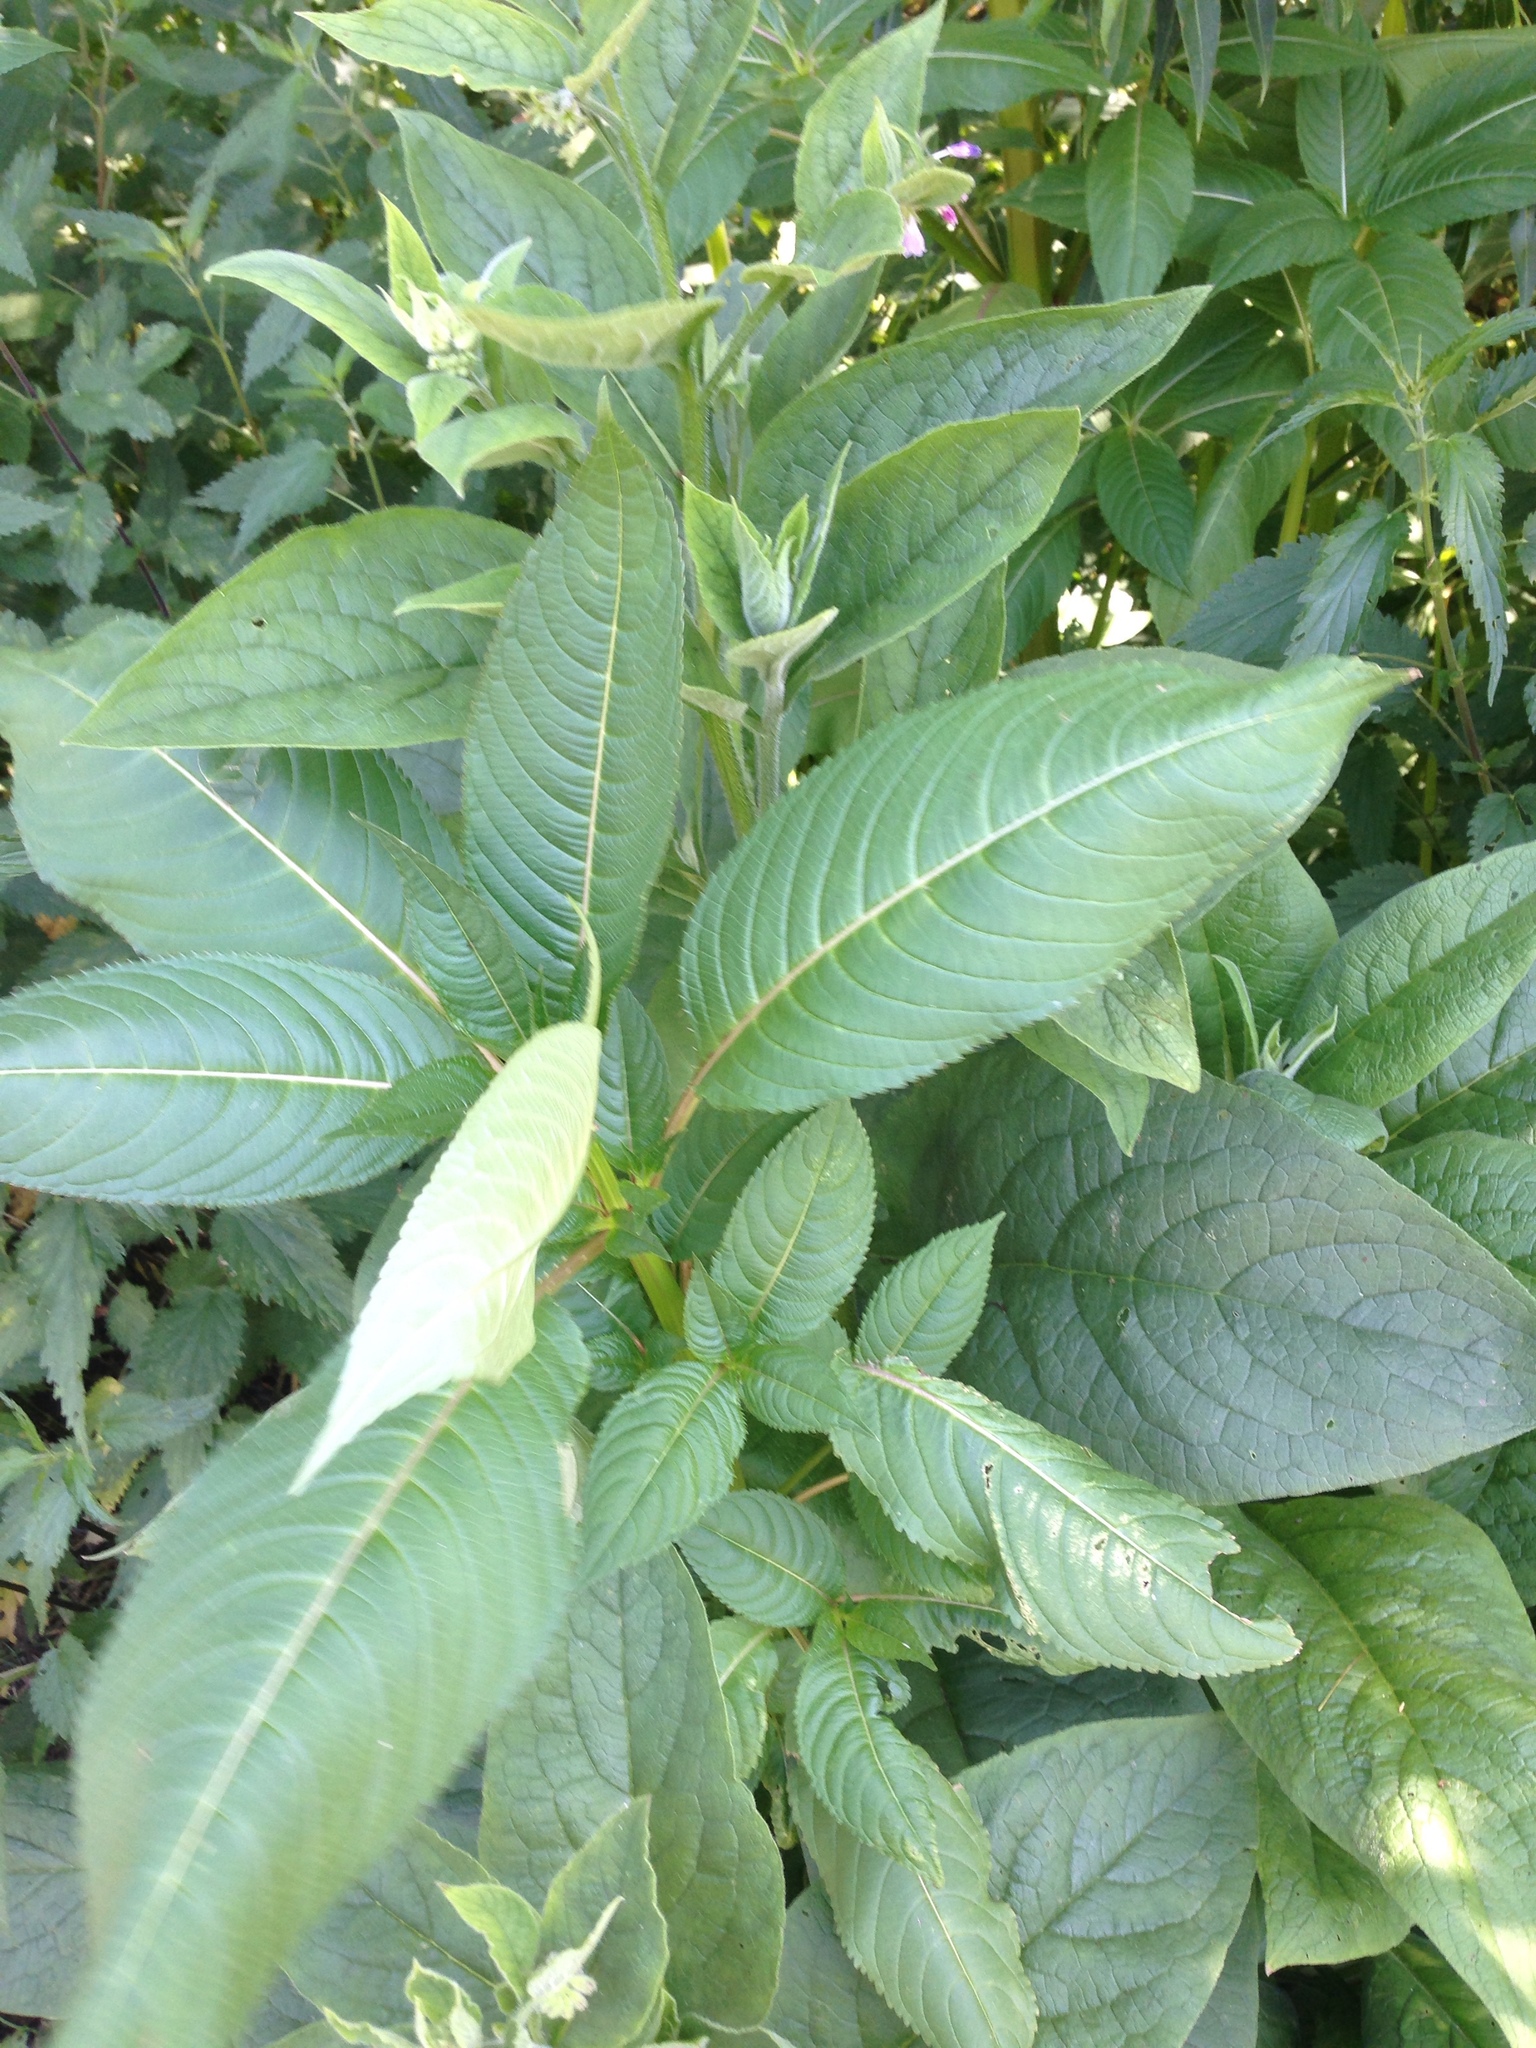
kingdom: Plantae
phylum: Tracheophyta
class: Magnoliopsida
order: Ericales
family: Balsaminaceae
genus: Impatiens
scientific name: Impatiens glandulifera
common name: Himalayan balsam
